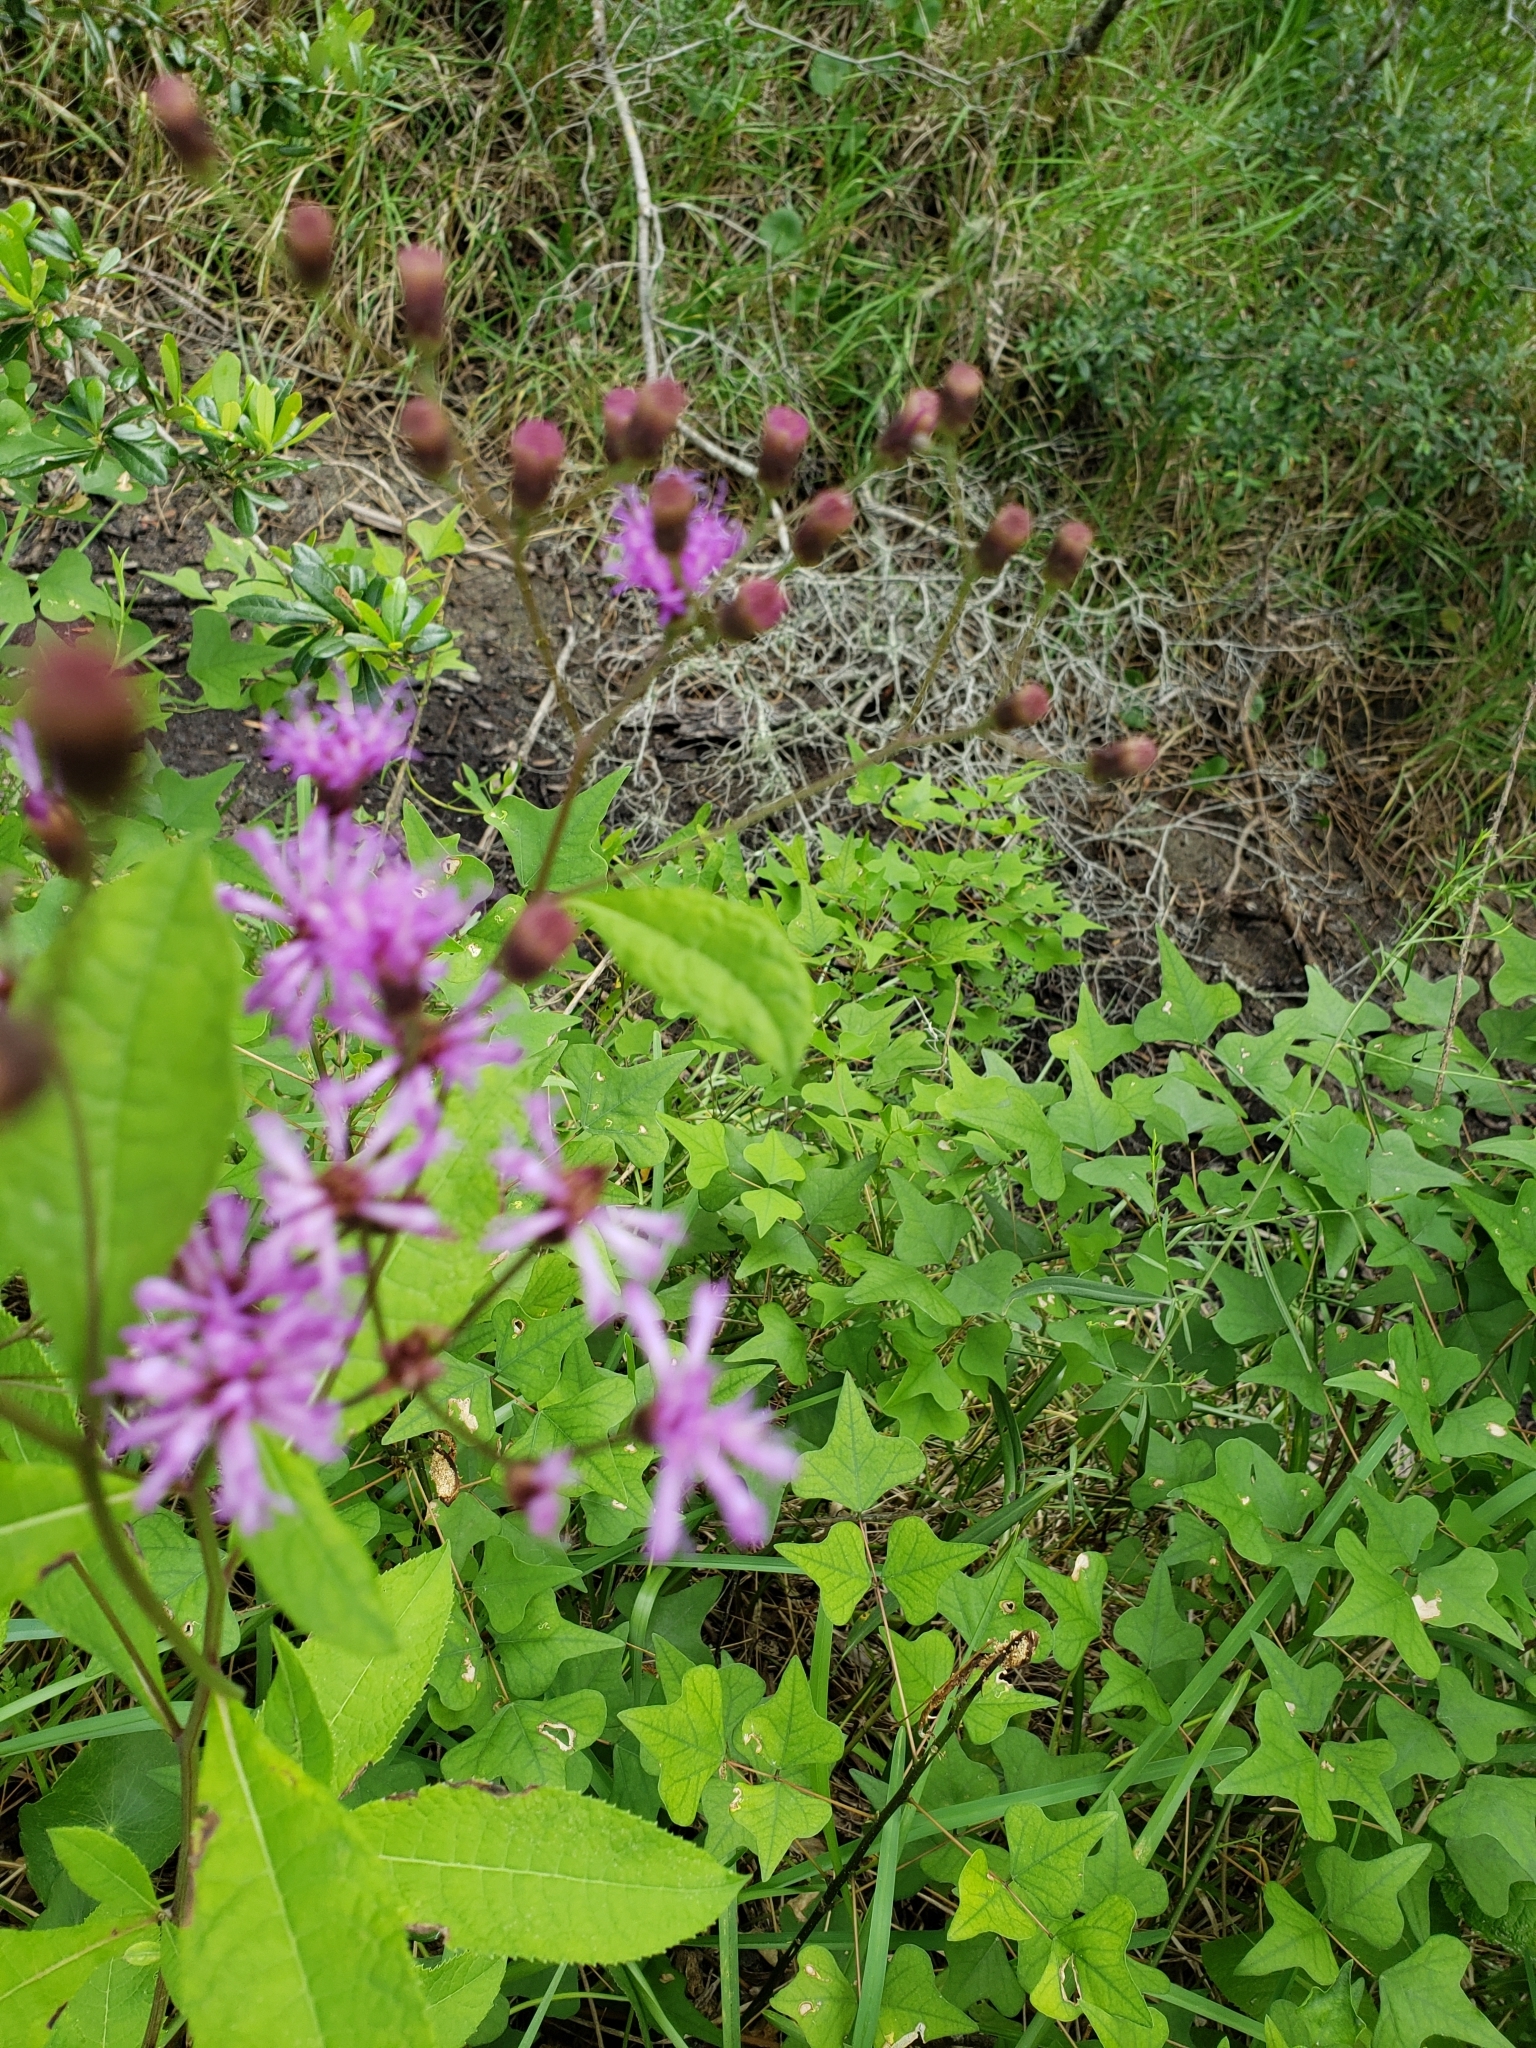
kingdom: Plantae
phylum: Tracheophyta
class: Magnoliopsida
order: Asterales
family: Asteraceae
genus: Vernonia
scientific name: Vernonia gigantea
